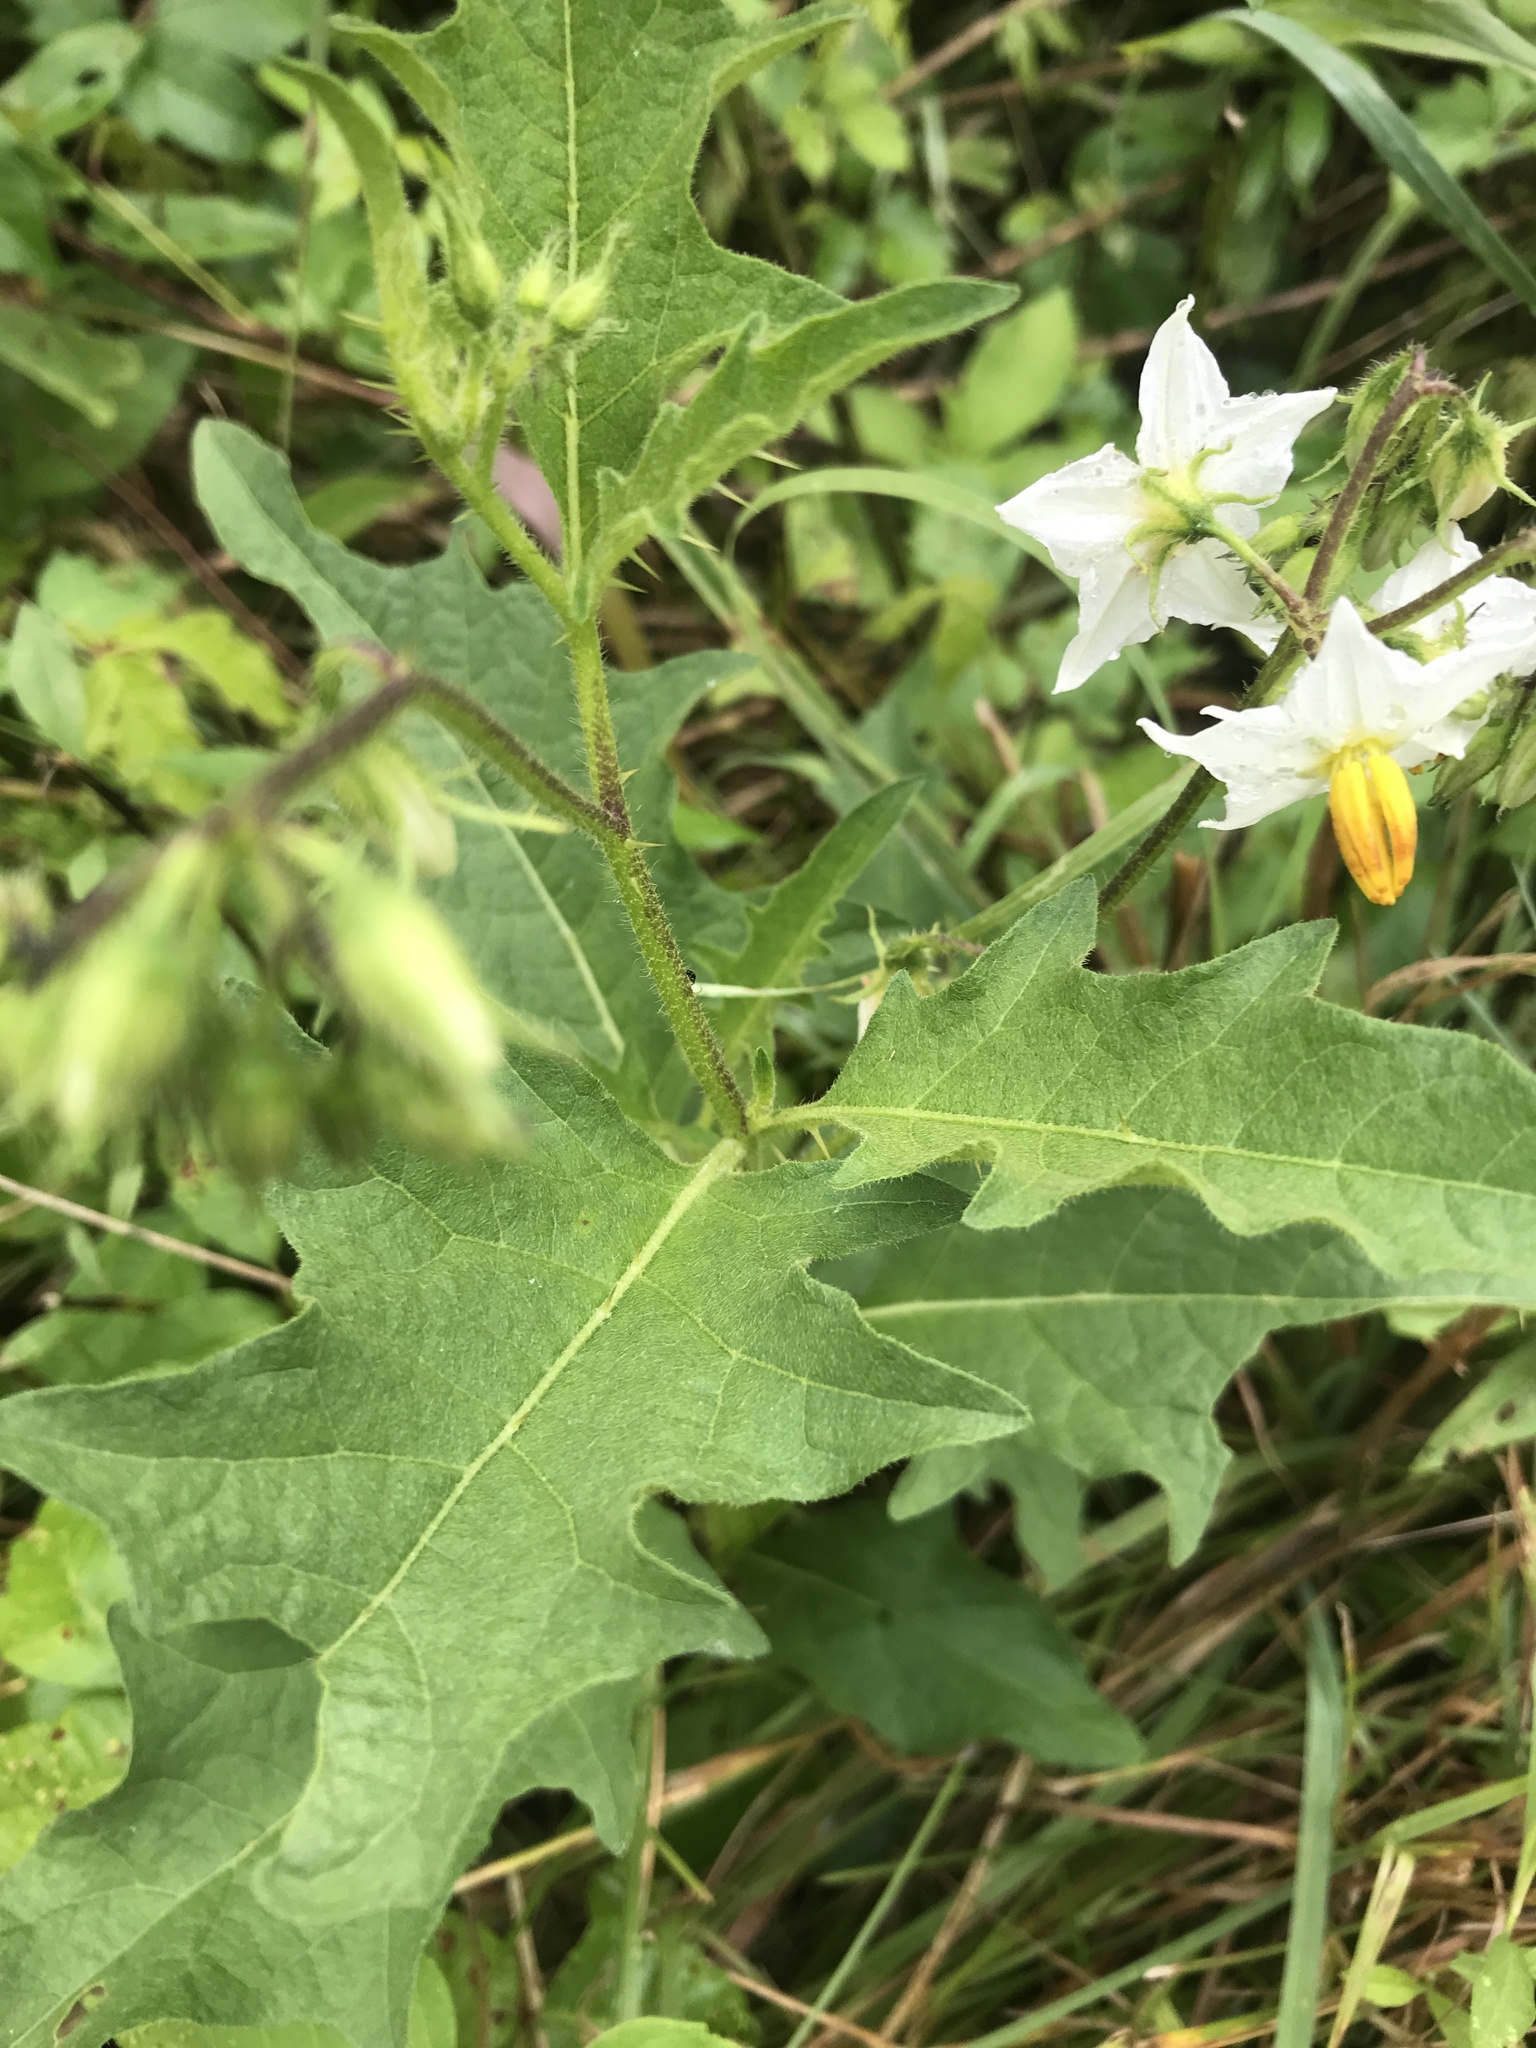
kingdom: Plantae
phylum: Tracheophyta
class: Magnoliopsida
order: Solanales
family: Solanaceae
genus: Solanum
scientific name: Solanum carolinense
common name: Horse-nettle
